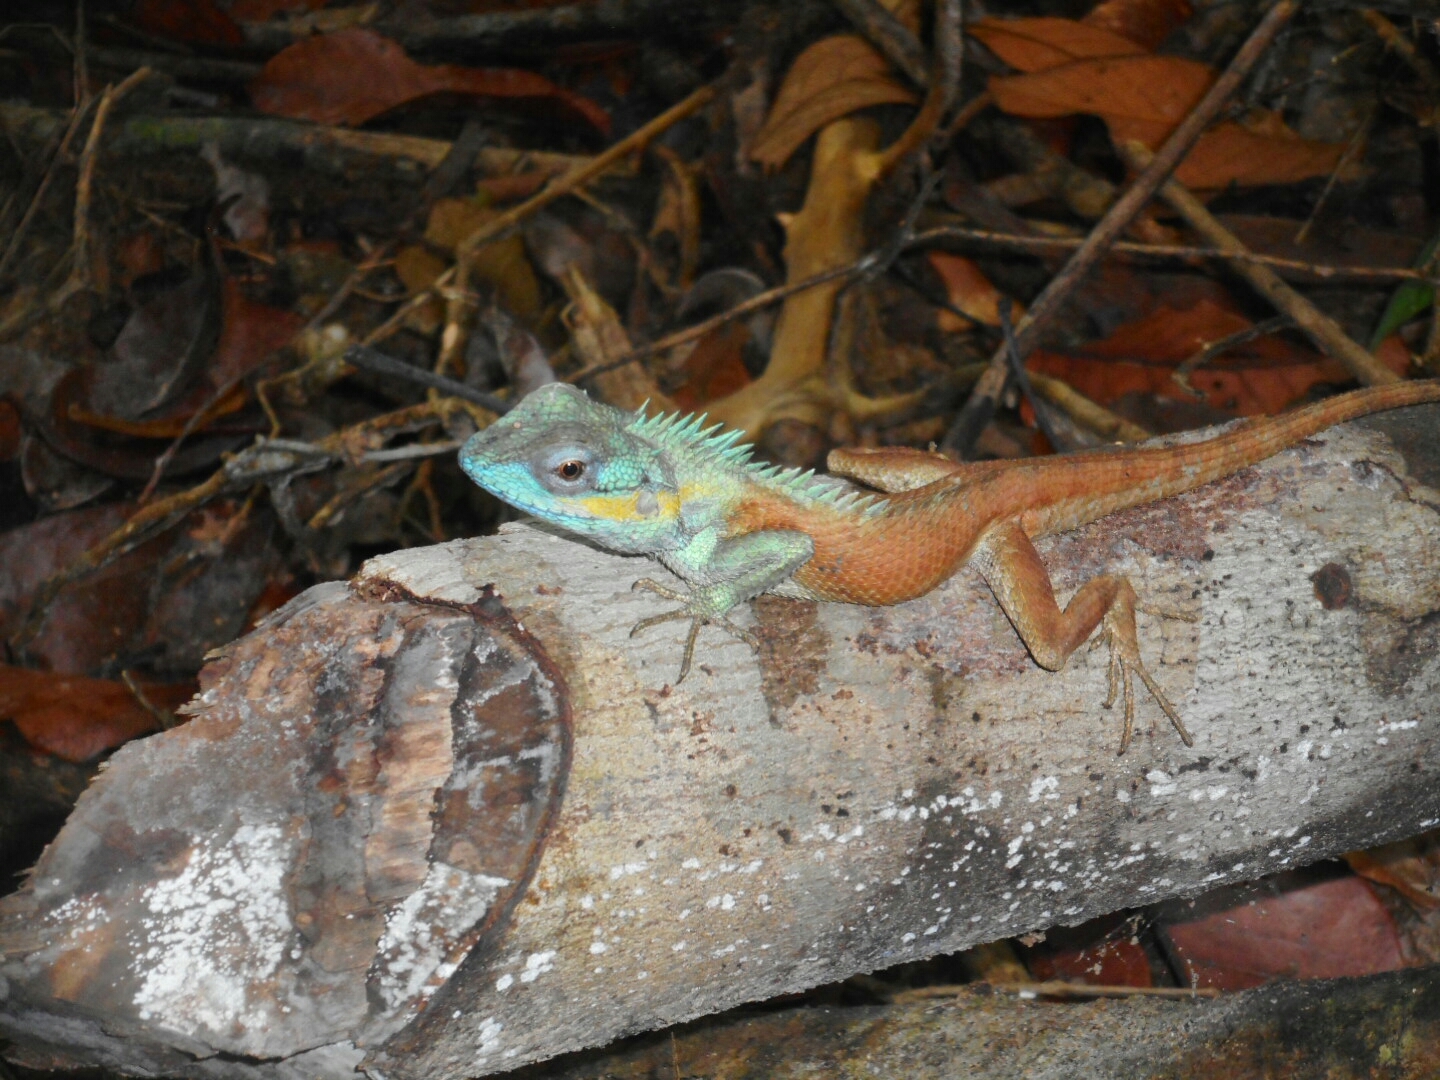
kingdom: Animalia
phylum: Chordata
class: Squamata
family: Agamidae
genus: Calotes
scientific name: Calotes bachae
